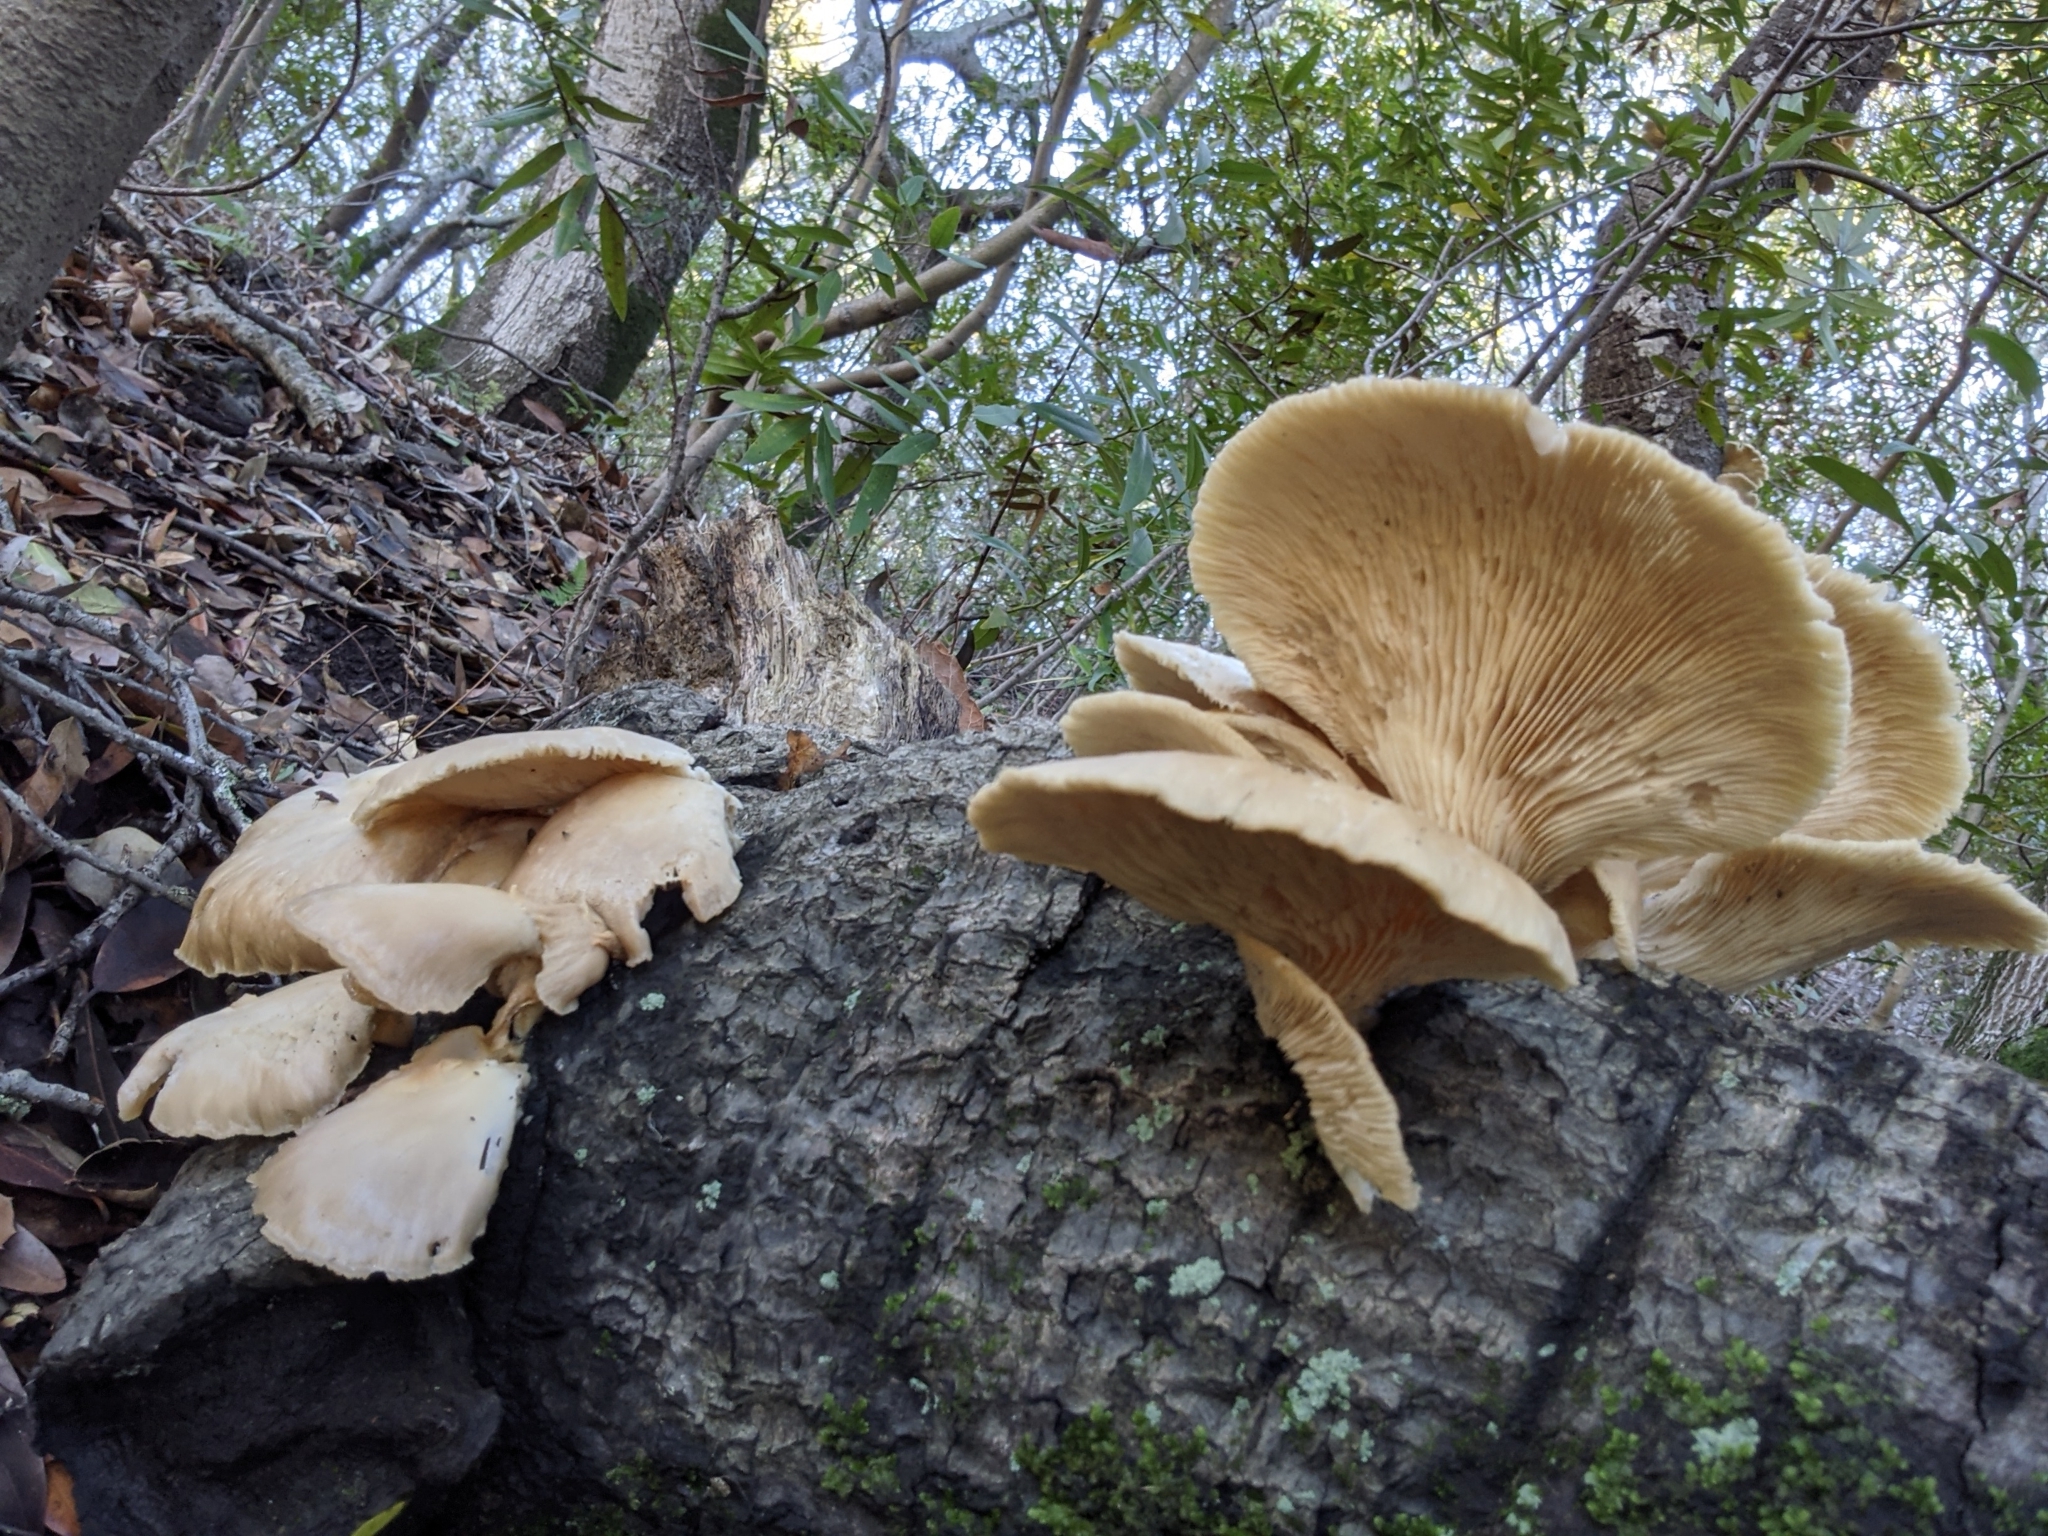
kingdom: Fungi
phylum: Basidiomycota
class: Agaricomycetes
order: Agaricales
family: Pleurotaceae
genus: Pleurotus
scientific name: Pleurotus ostreatus
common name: Oyster mushroom
